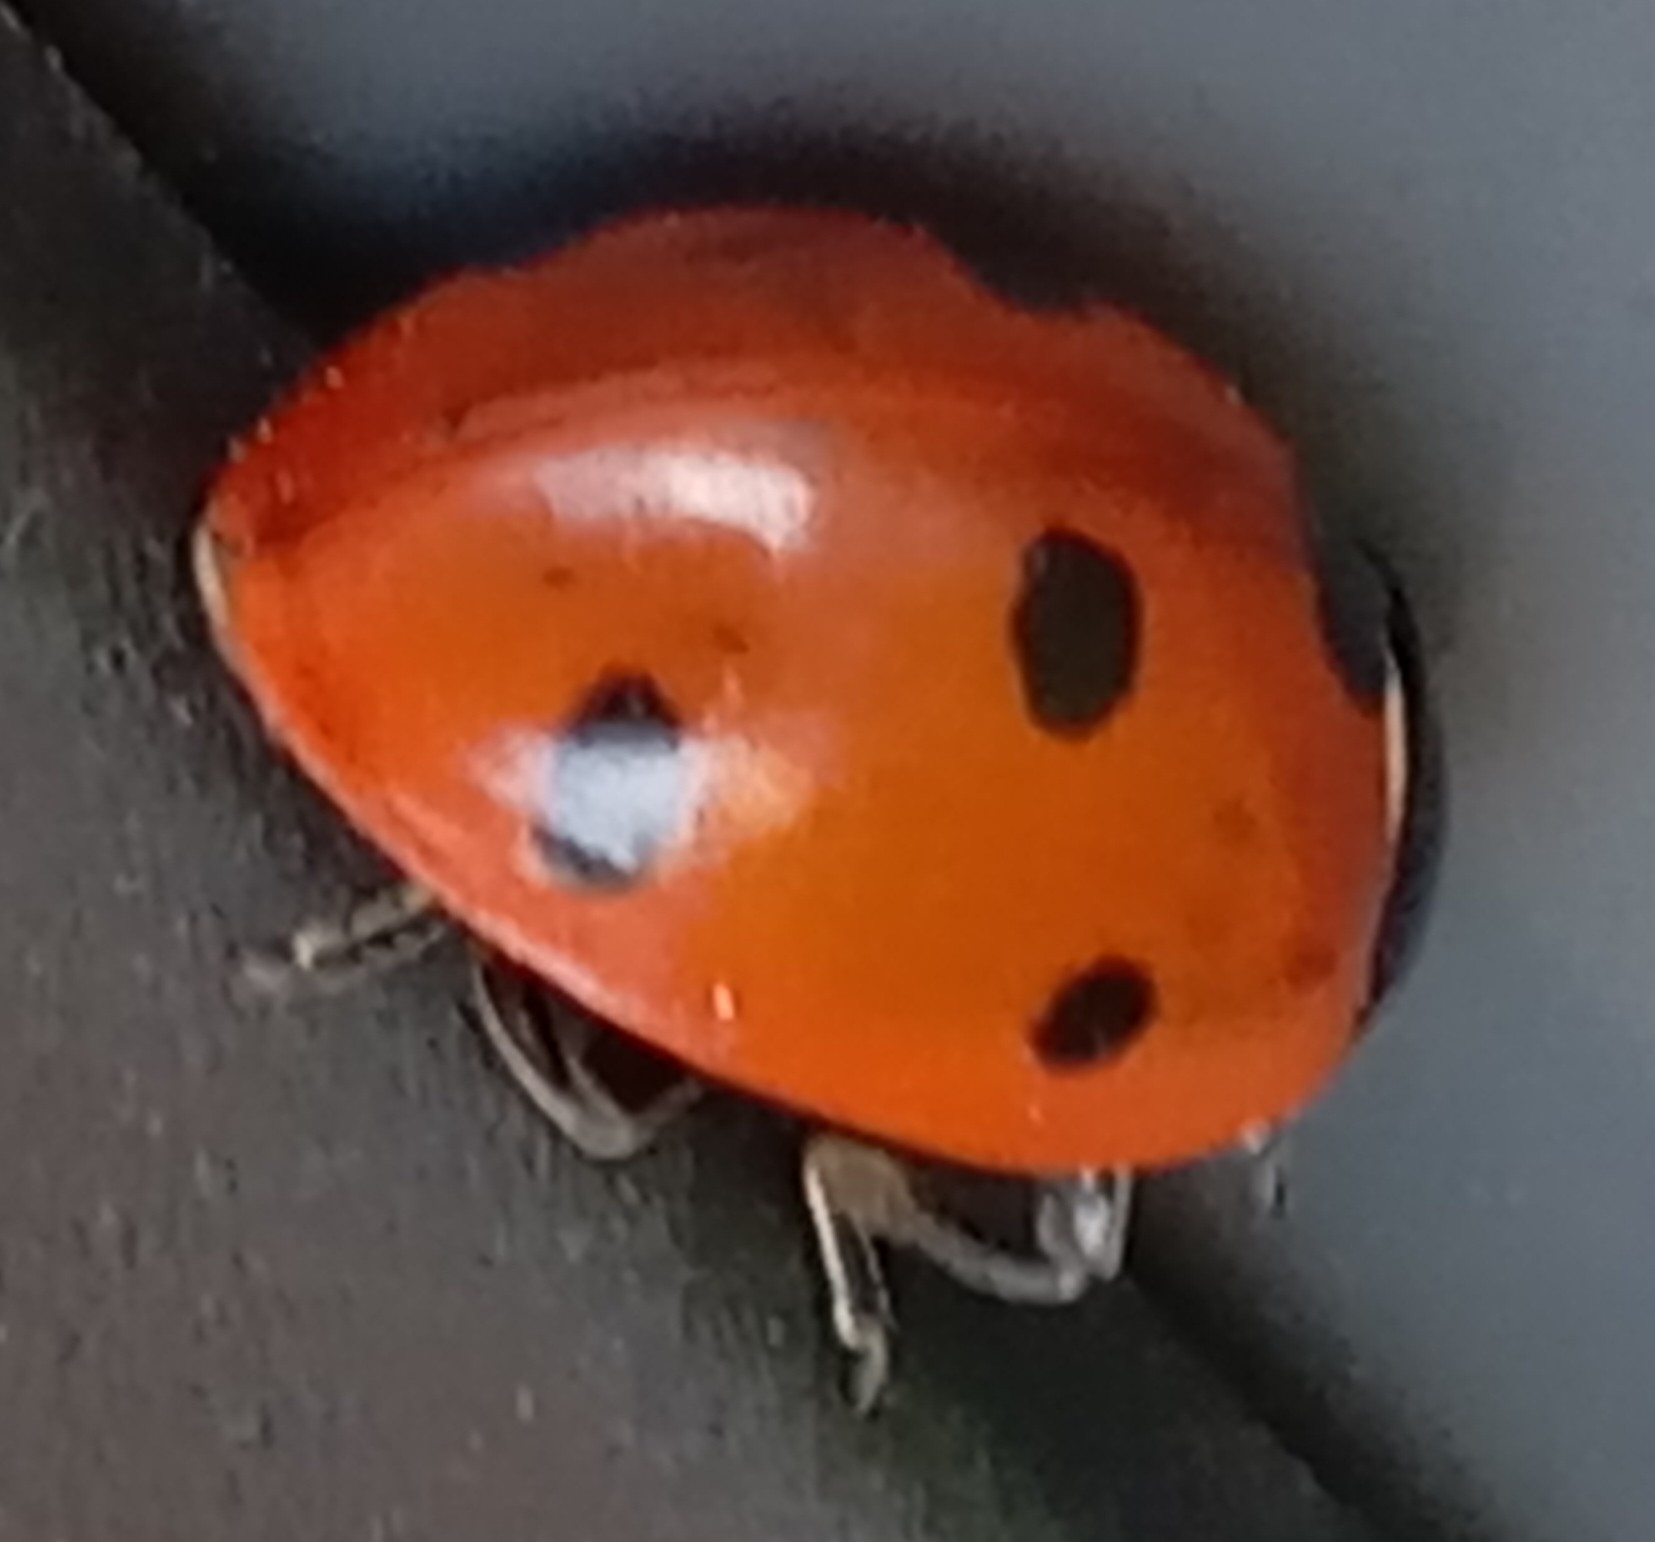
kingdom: Animalia
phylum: Arthropoda
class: Insecta
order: Coleoptera
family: Coccinellidae
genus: Coccinella
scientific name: Coccinella septempunctata
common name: Sevenspotted lady beetle
